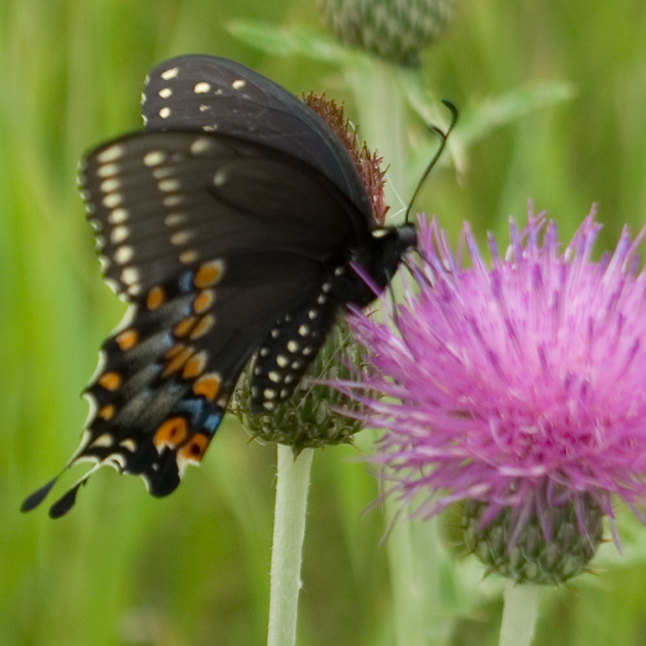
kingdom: Animalia
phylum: Arthropoda
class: Insecta
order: Lepidoptera
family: Papilionidae
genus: Papilio
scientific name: Papilio polyxenes
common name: Black swallowtail
